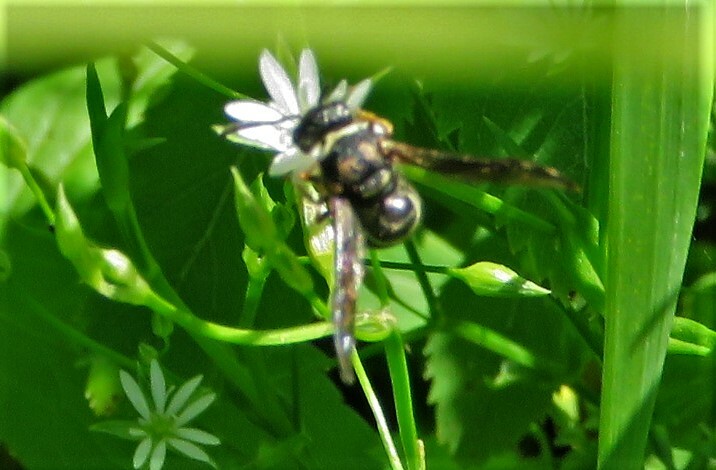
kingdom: Animalia
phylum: Arthropoda
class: Insecta
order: Hymenoptera
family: Vespidae
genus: Ancistrocerus
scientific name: Ancistrocerus
